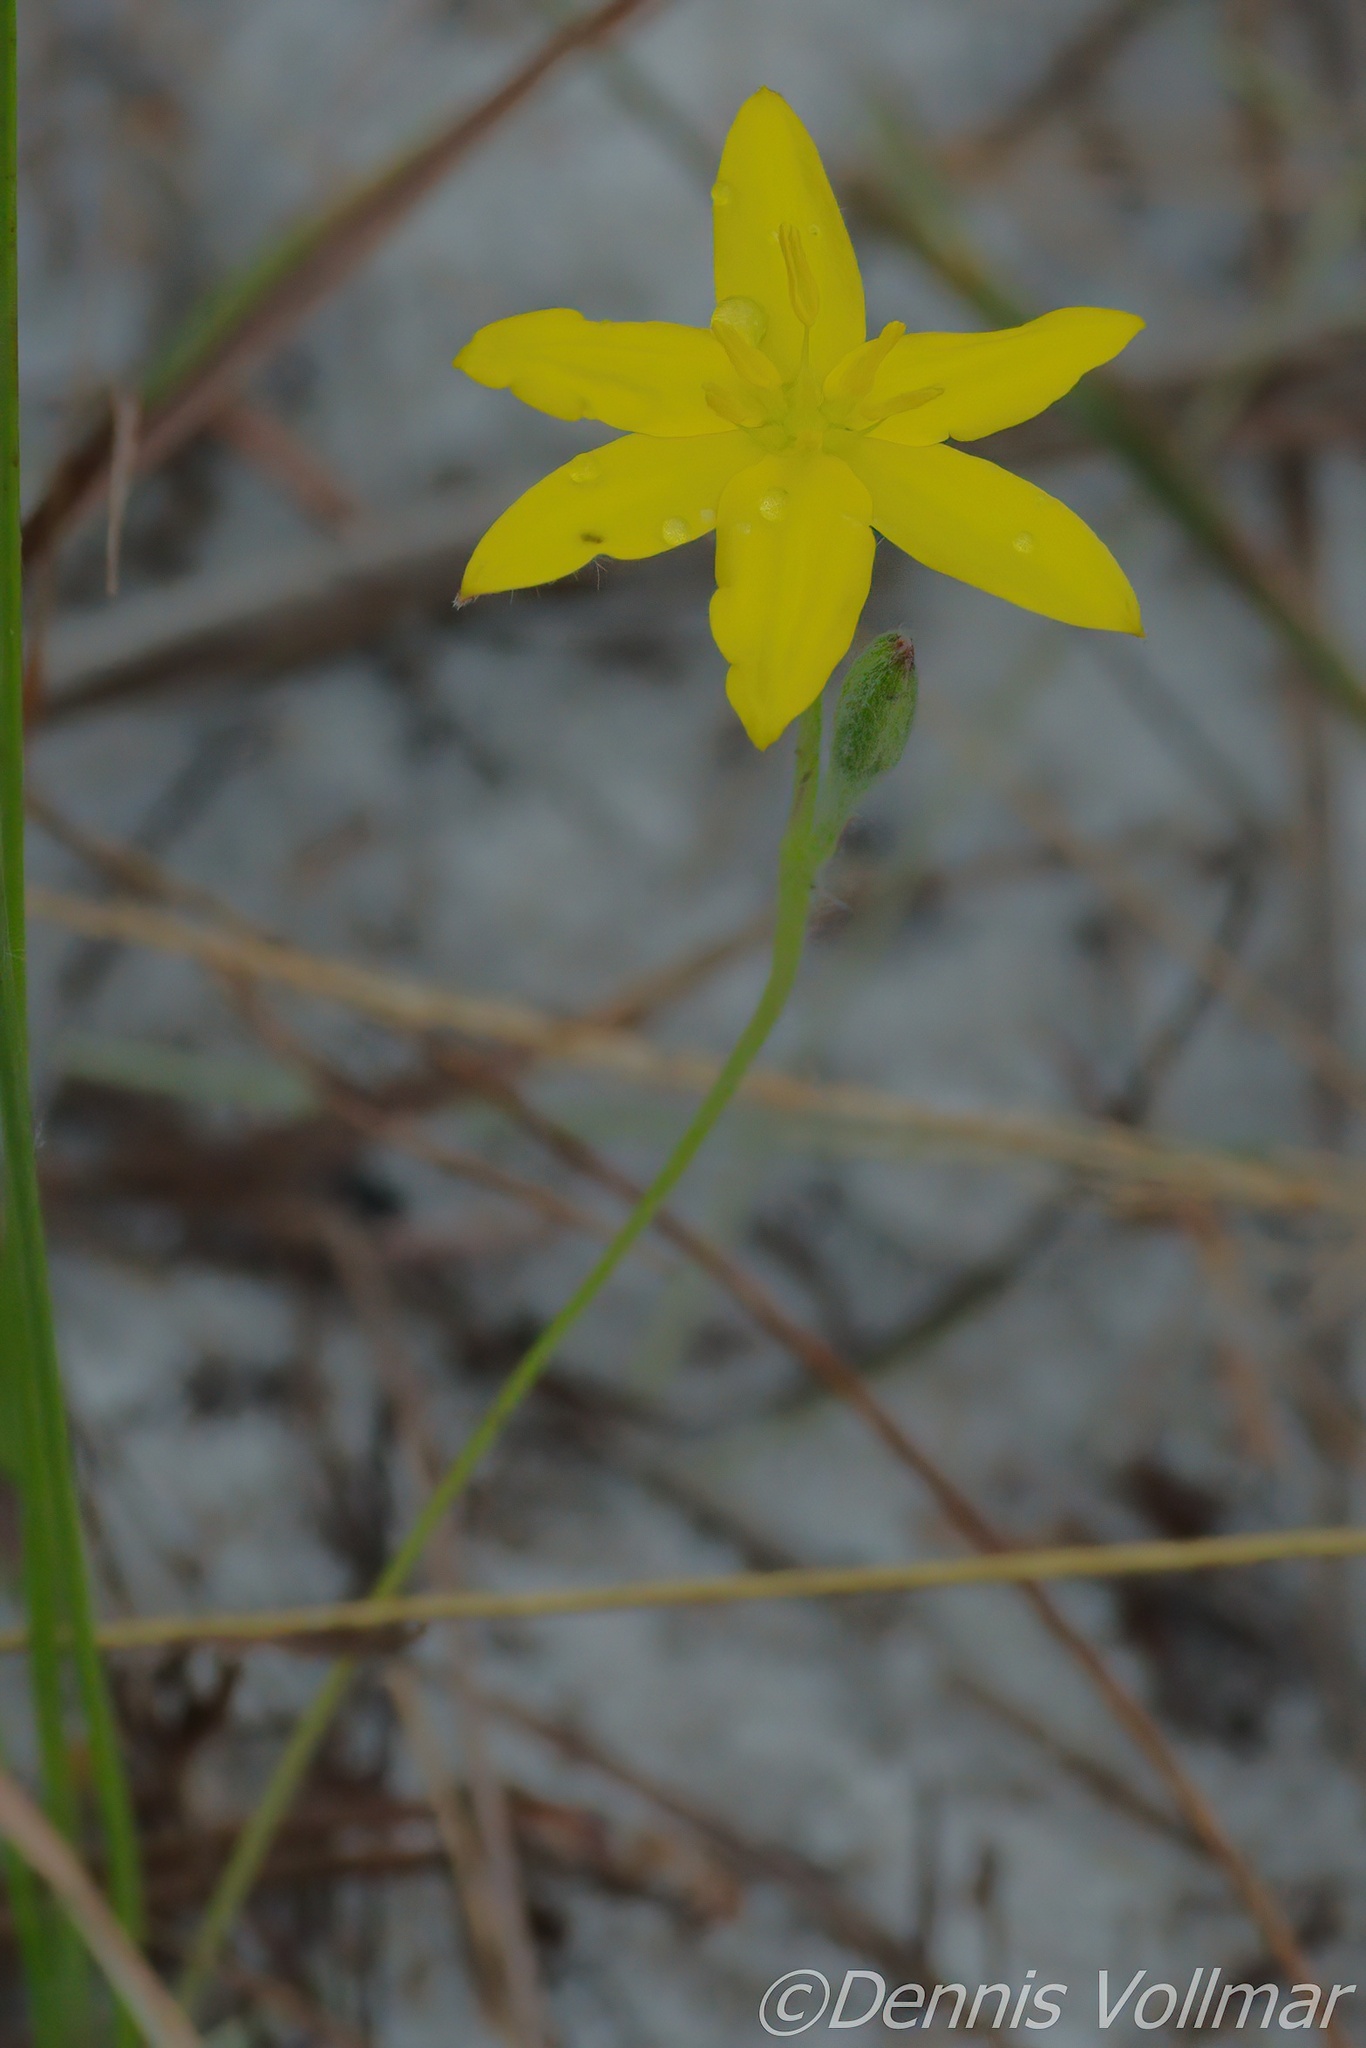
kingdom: Plantae
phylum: Tracheophyta
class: Liliopsida
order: Asparagales
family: Hypoxidaceae
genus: Hypoxis
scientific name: Hypoxis juncea
